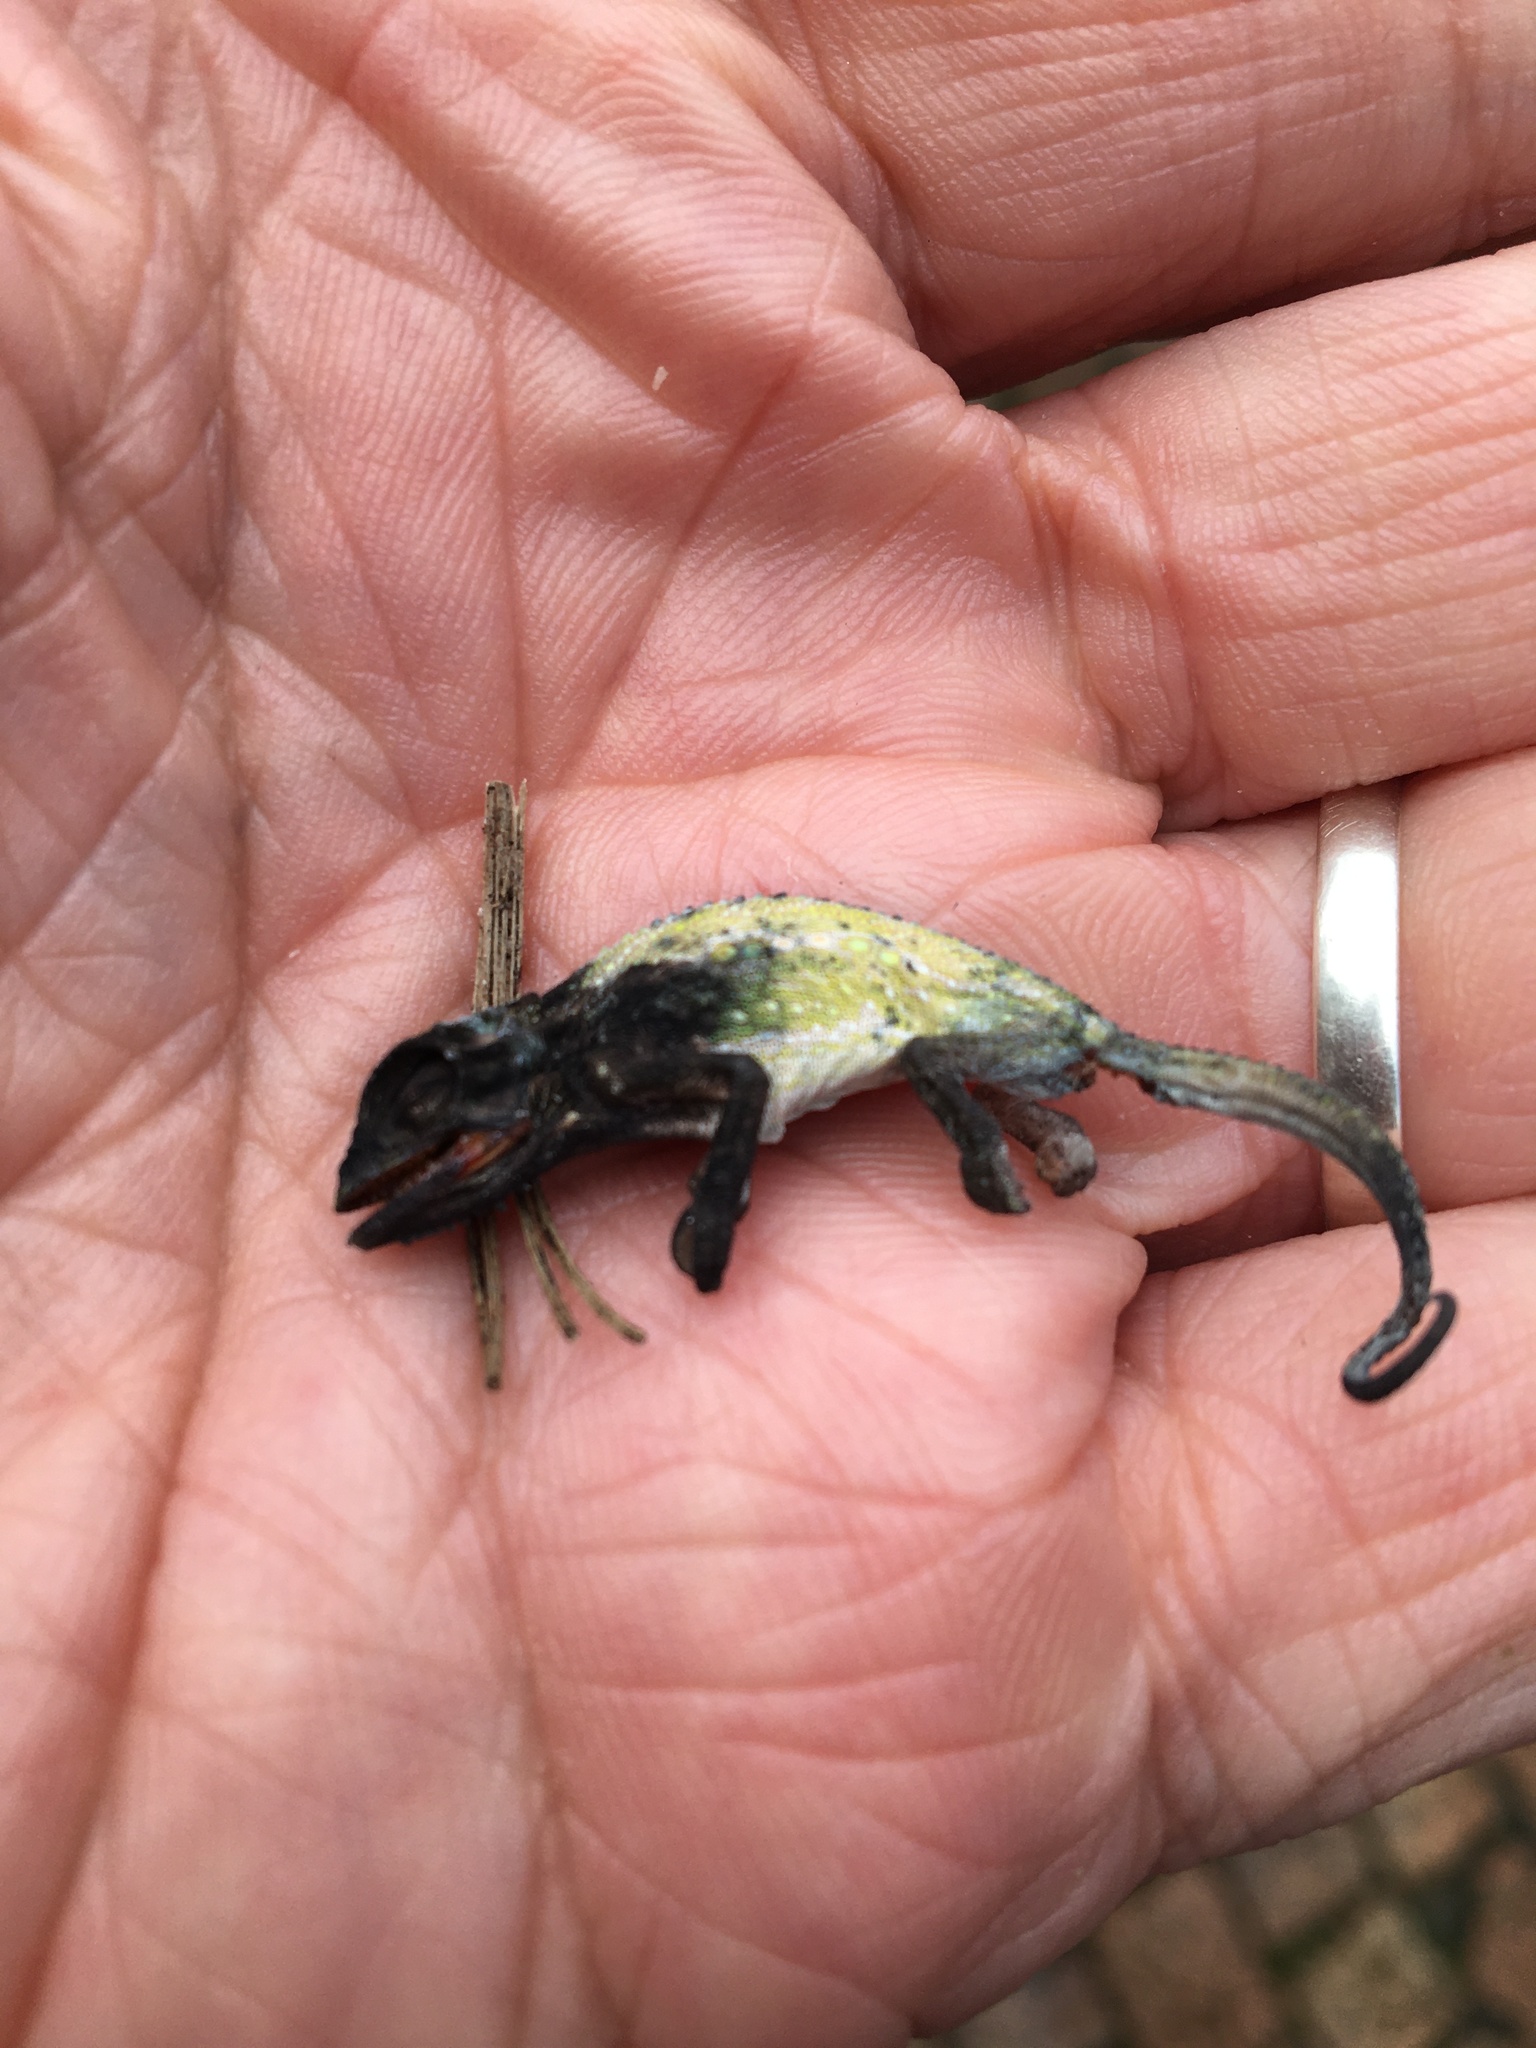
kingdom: Animalia
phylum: Chordata
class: Squamata
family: Chamaeleonidae
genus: Bradypodion
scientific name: Bradypodion pumilum
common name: Cape dwarf chameleon
